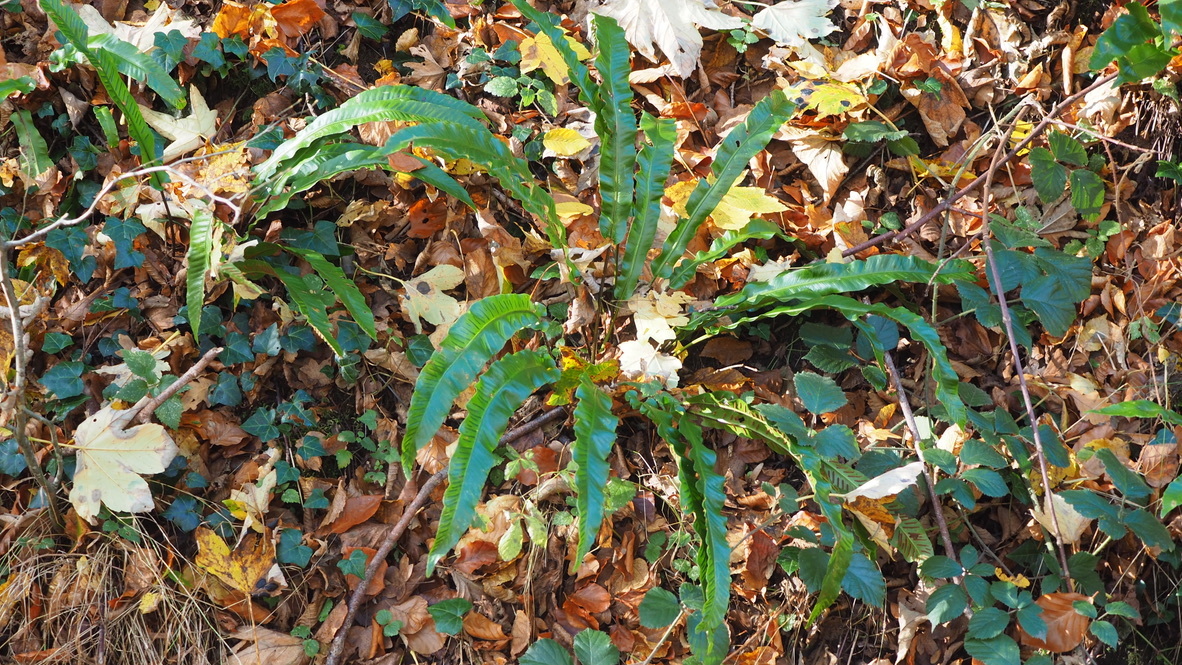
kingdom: Plantae
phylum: Tracheophyta
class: Polypodiopsida
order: Polypodiales
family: Aspleniaceae
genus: Asplenium
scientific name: Asplenium scolopendrium
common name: Hart's-tongue fern
